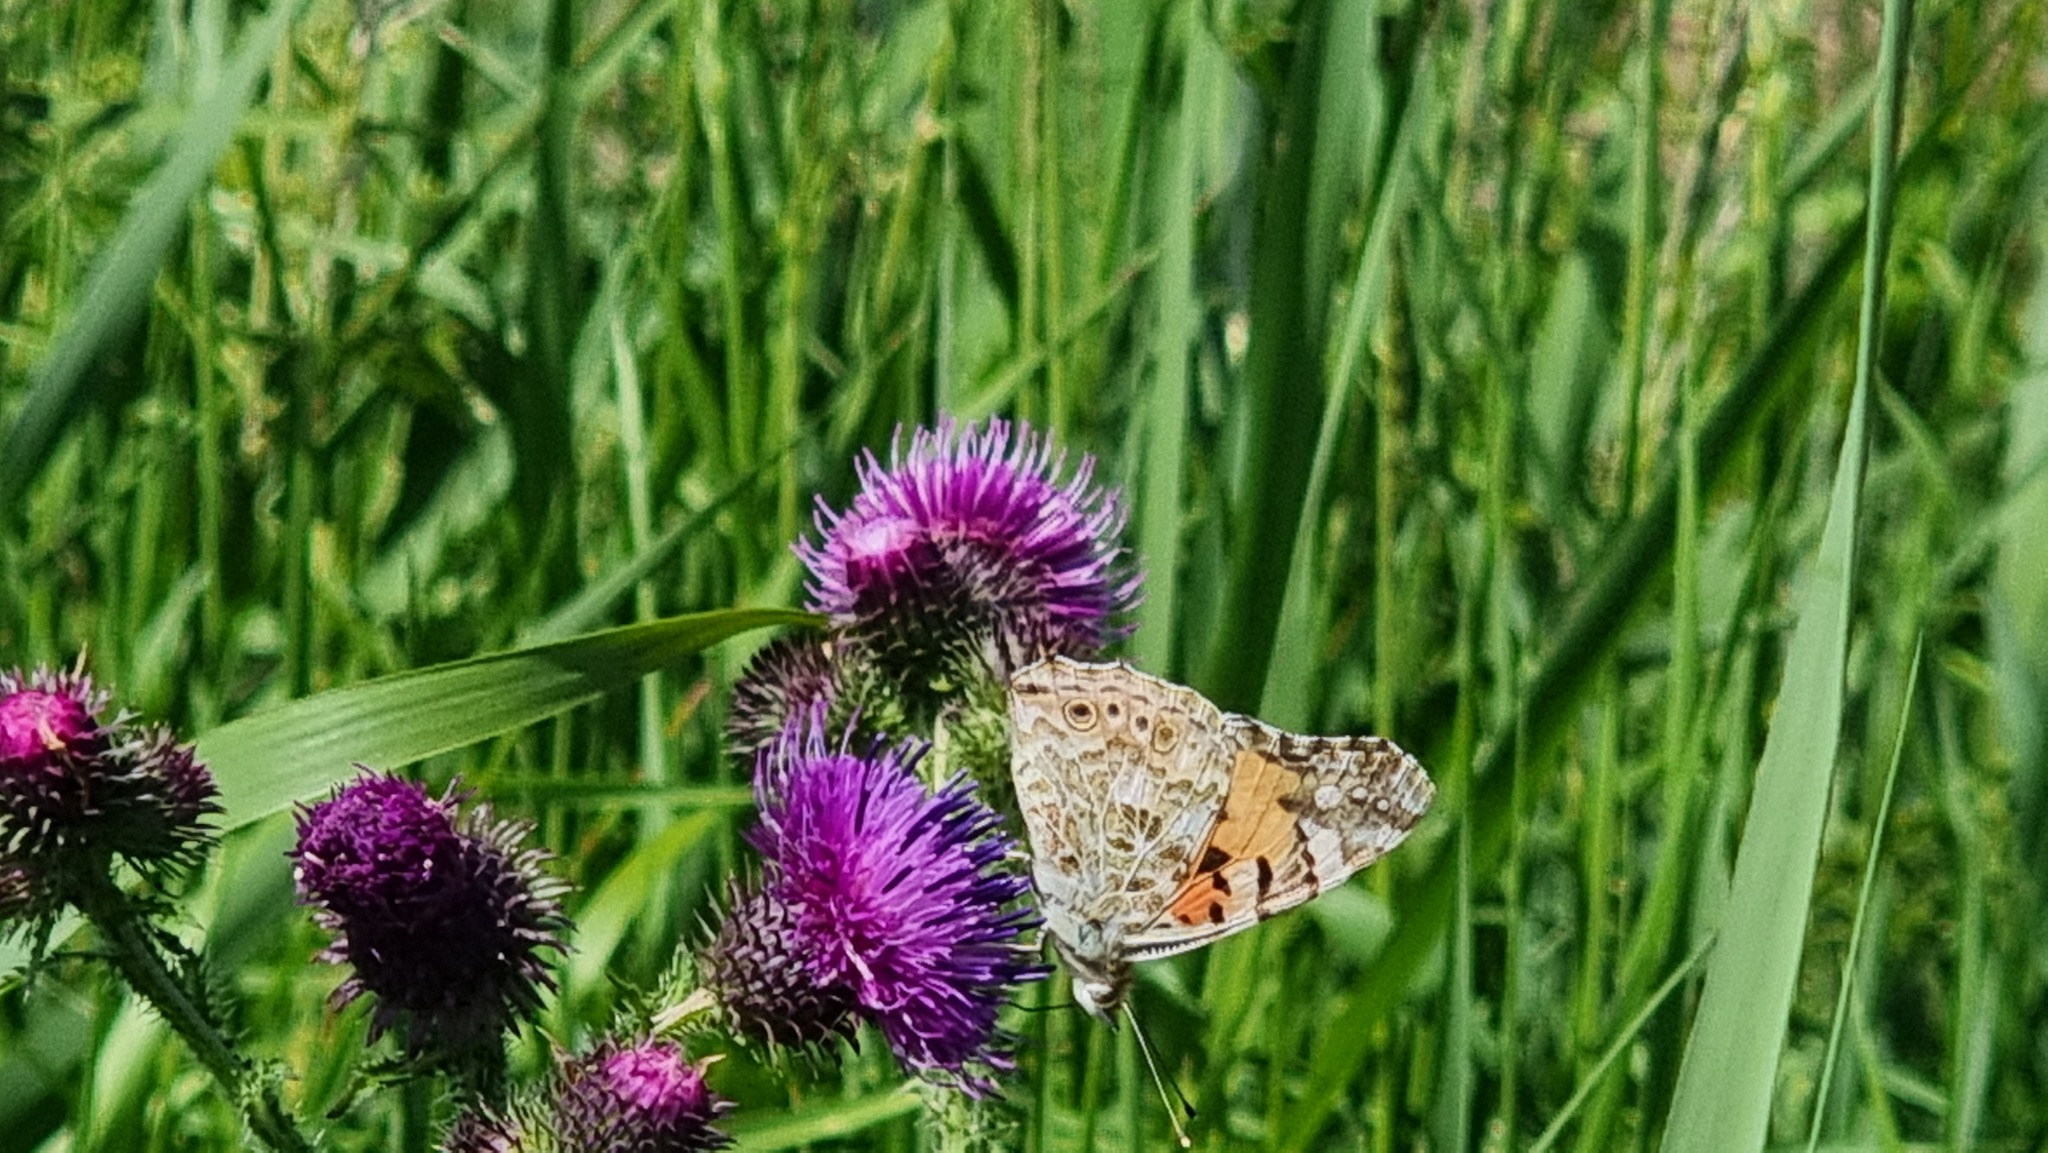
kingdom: Animalia
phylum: Arthropoda
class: Insecta
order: Lepidoptera
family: Nymphalidae
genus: Vanessa
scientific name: Vanessa cardui
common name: Painted lady
